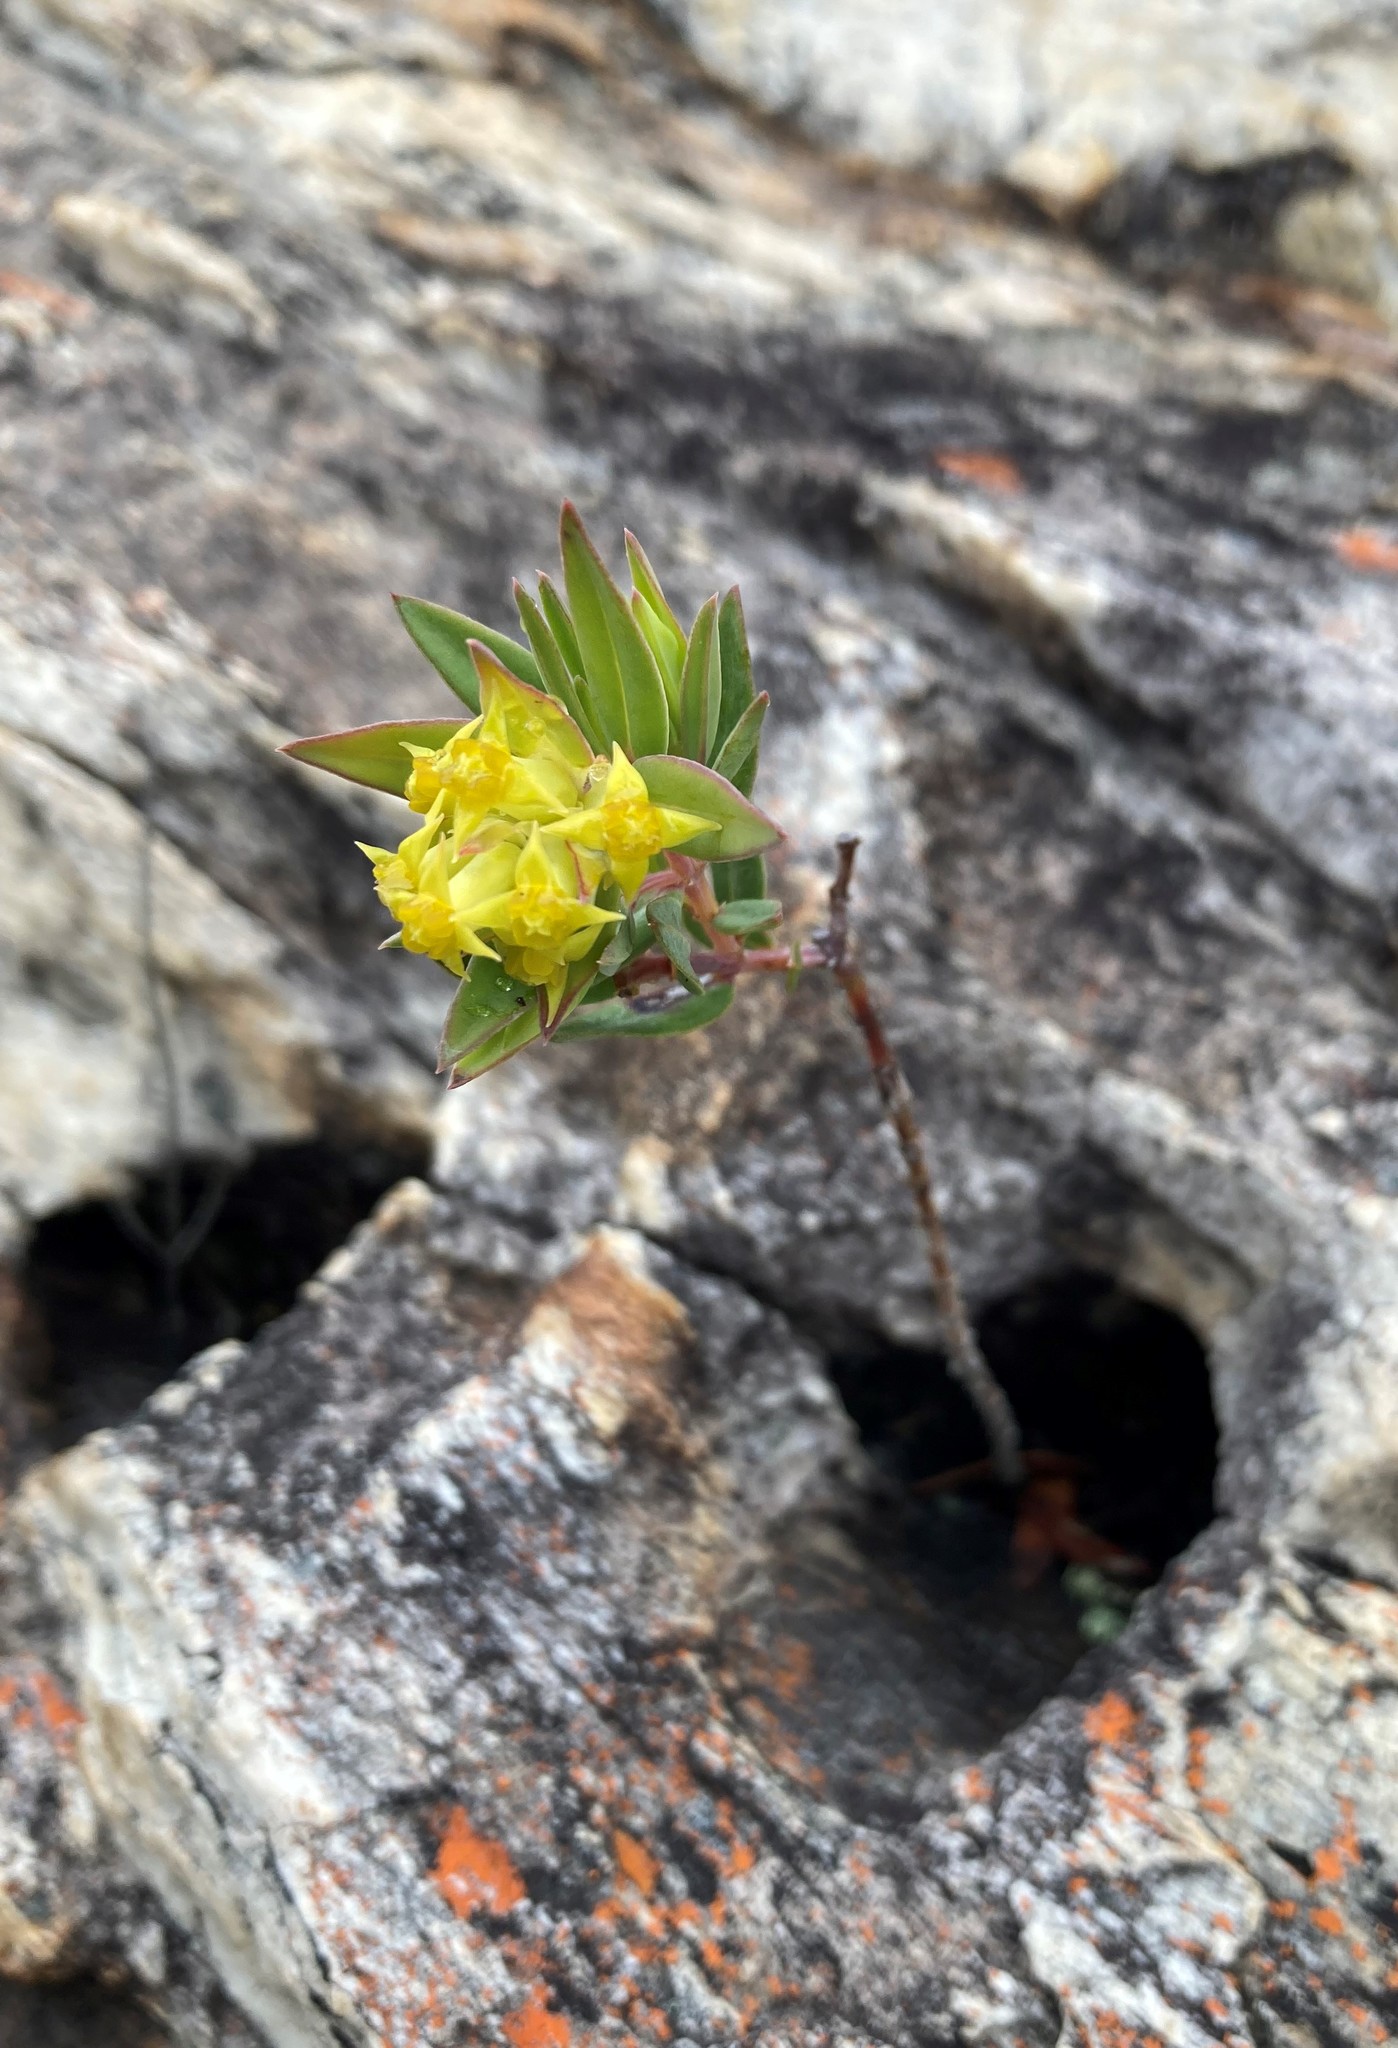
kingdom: Plantae
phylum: Tracheophyta
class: Magnoliopsida
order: Myrtales
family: Penaeaceae
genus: Penaea
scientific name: Penaea acutifolia
